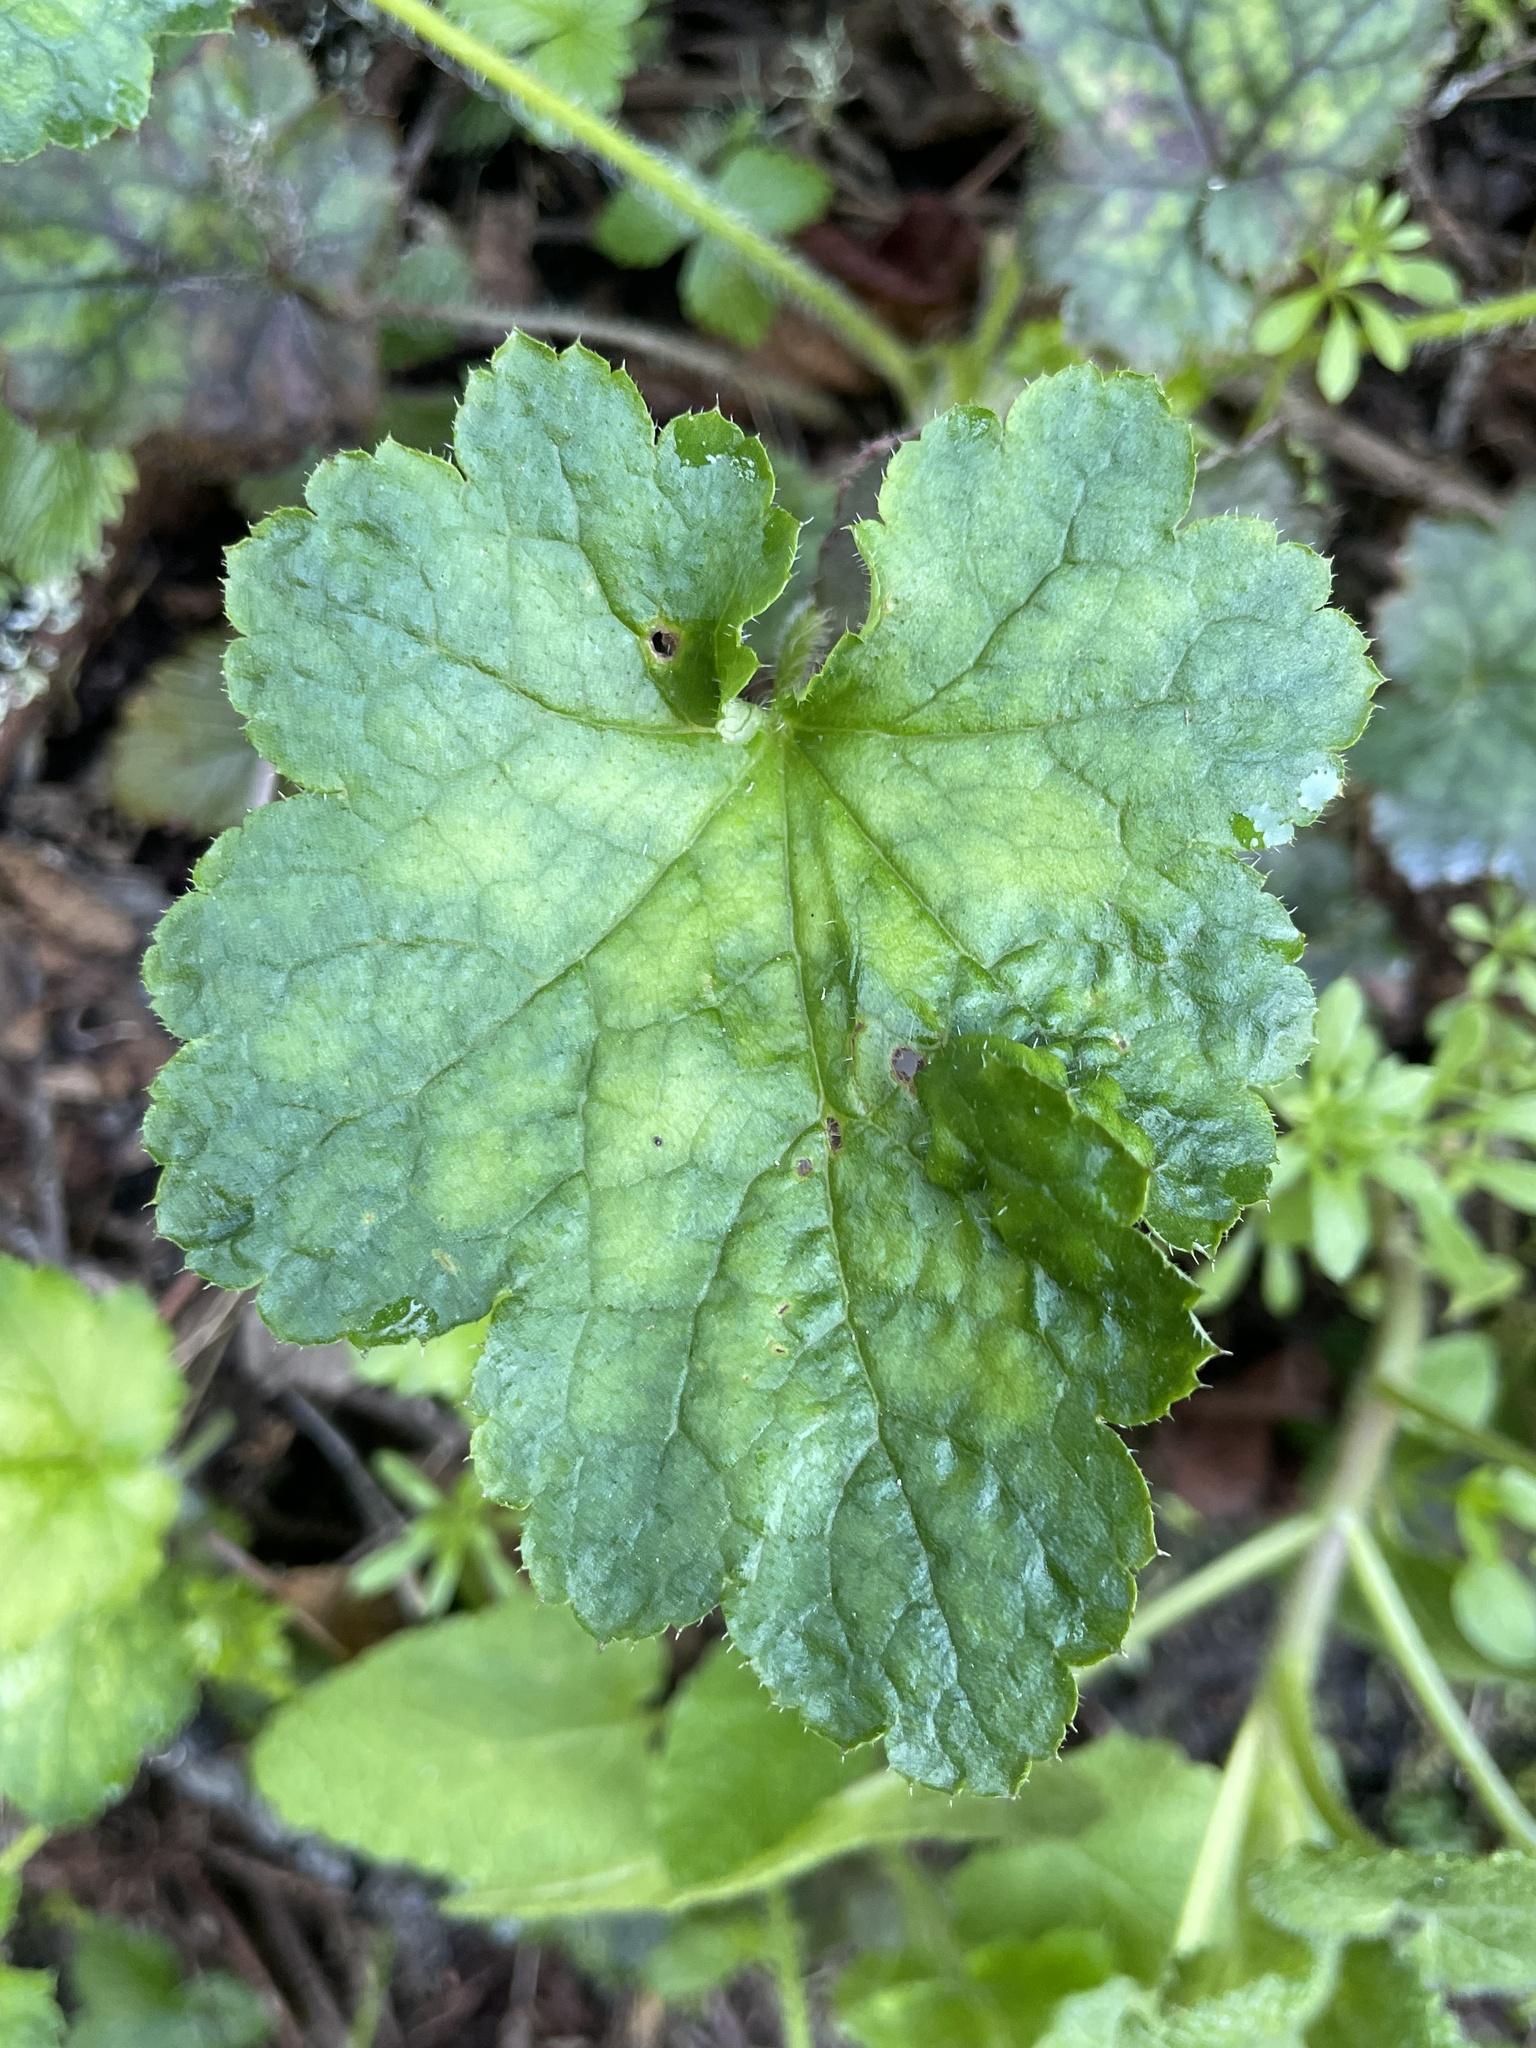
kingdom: Plantae
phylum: Tracheophyta
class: Magnoliopsida
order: Saxifragales
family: Saxifragaceae
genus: Heuchera
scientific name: Heuchera micrantha
